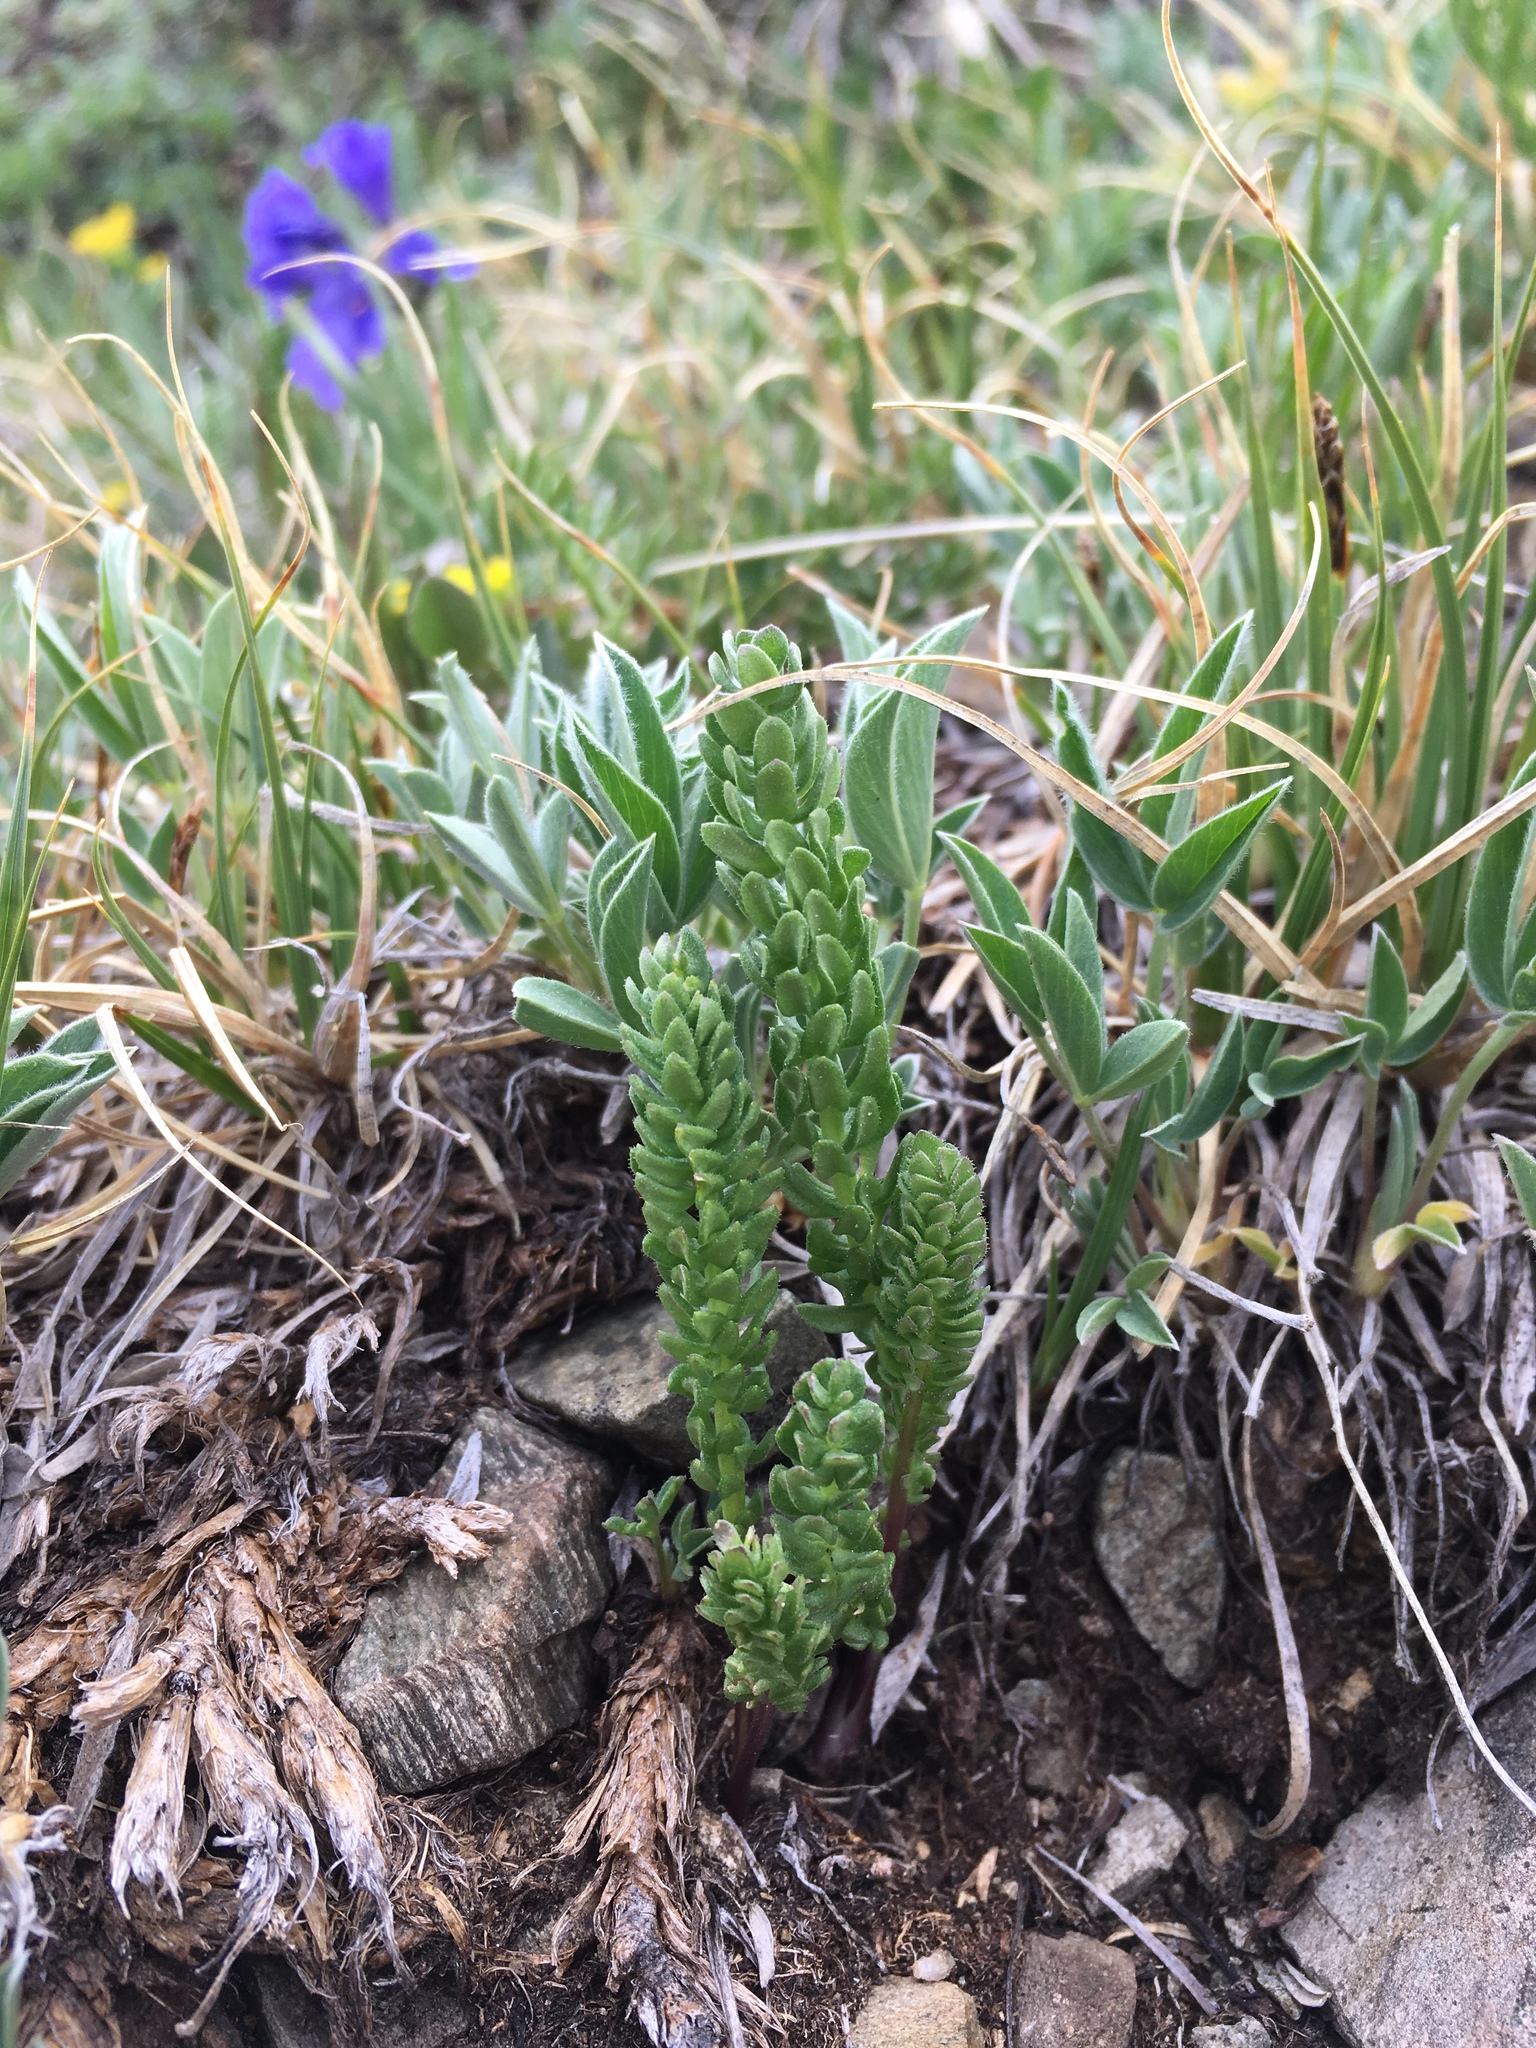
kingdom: Plantae
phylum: Tracheophyta
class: Magnoliopsida
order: Ericales
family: Polemoniaceae
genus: Polemonium
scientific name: Polemonium viscosum
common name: Skunk jacob's-ladder
